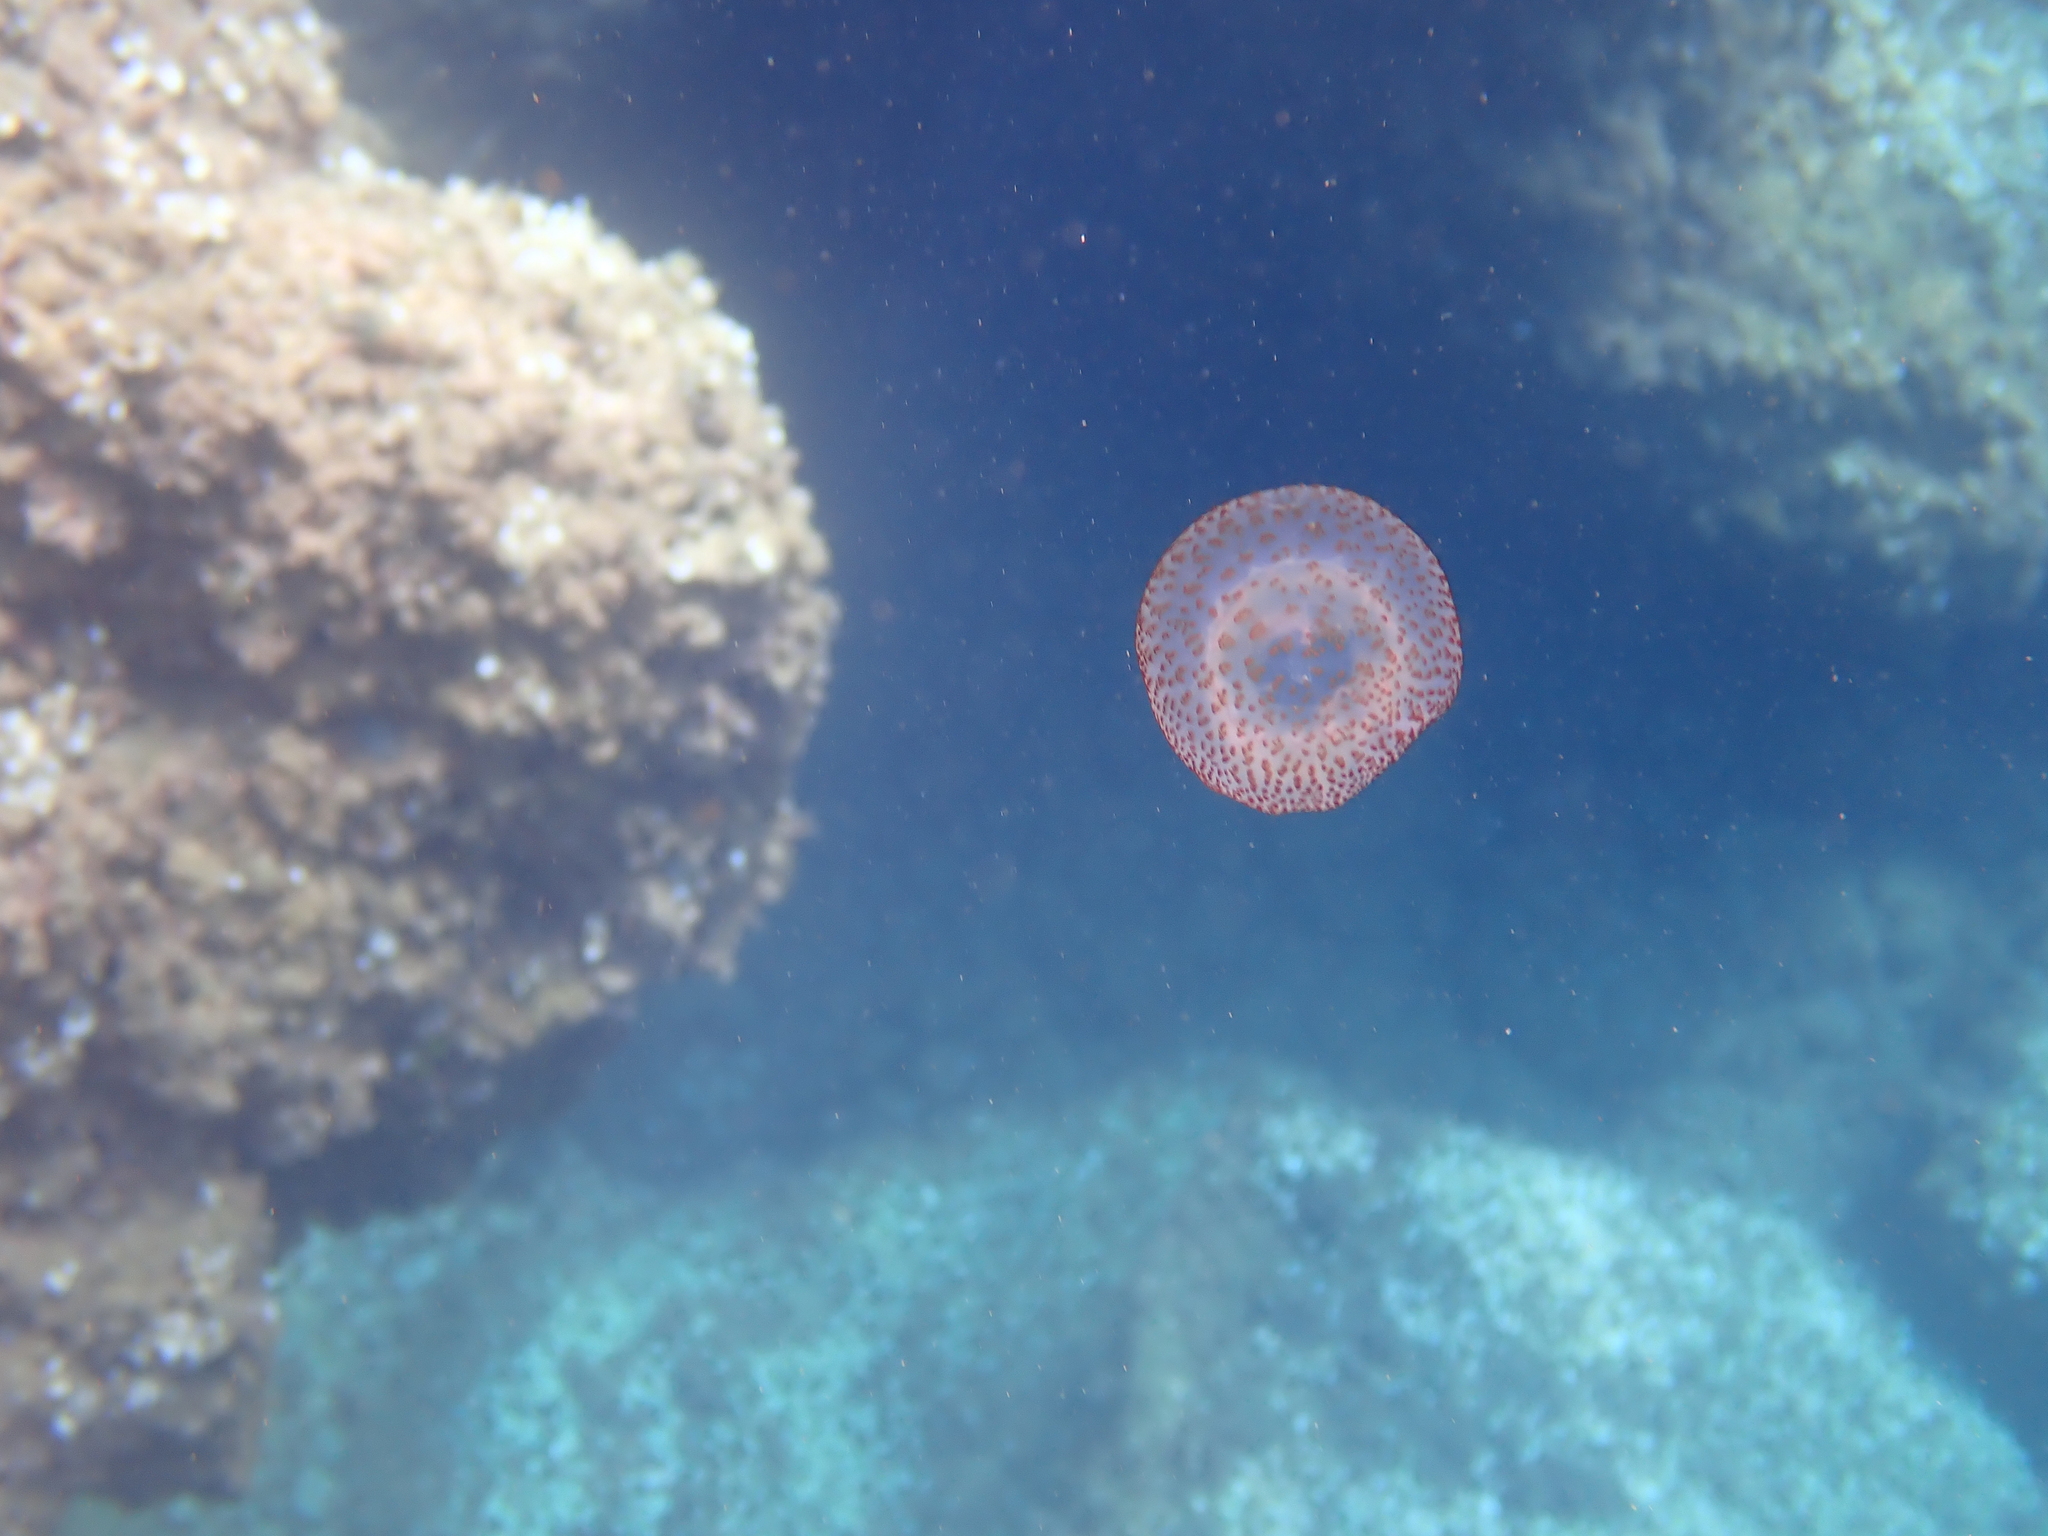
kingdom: Animalia
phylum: Cnidaria
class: Scyphozoa
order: Semaeostomeae
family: Pelagiidae
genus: Pelagia
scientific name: Pelagia noctiluca
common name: Mauve stinger
